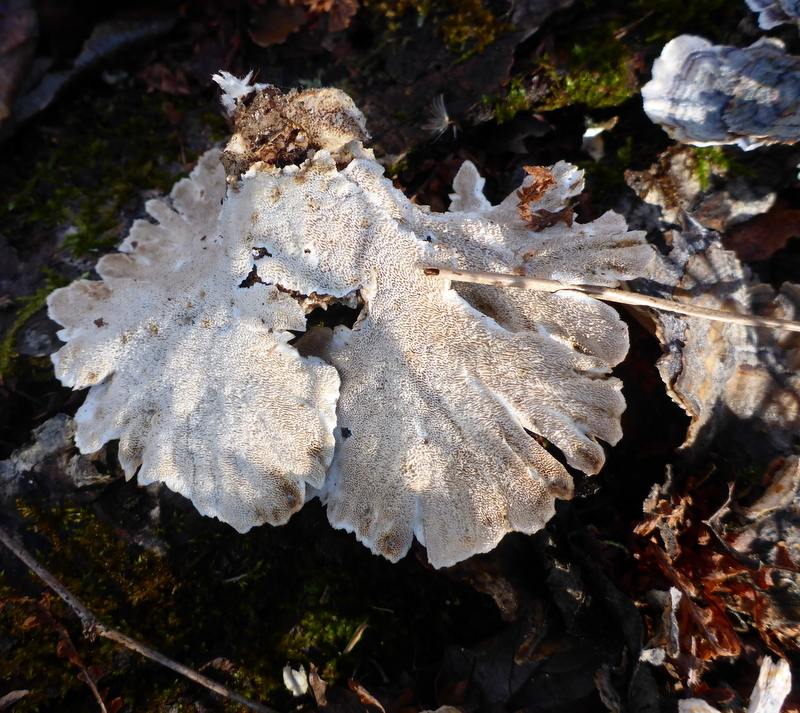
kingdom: Fungi
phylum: Basidiomycota
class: Agaricomycetes
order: Polyporales
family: Polyporaceae
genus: Trametes
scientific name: Trametes versicolor
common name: Turkeytail
